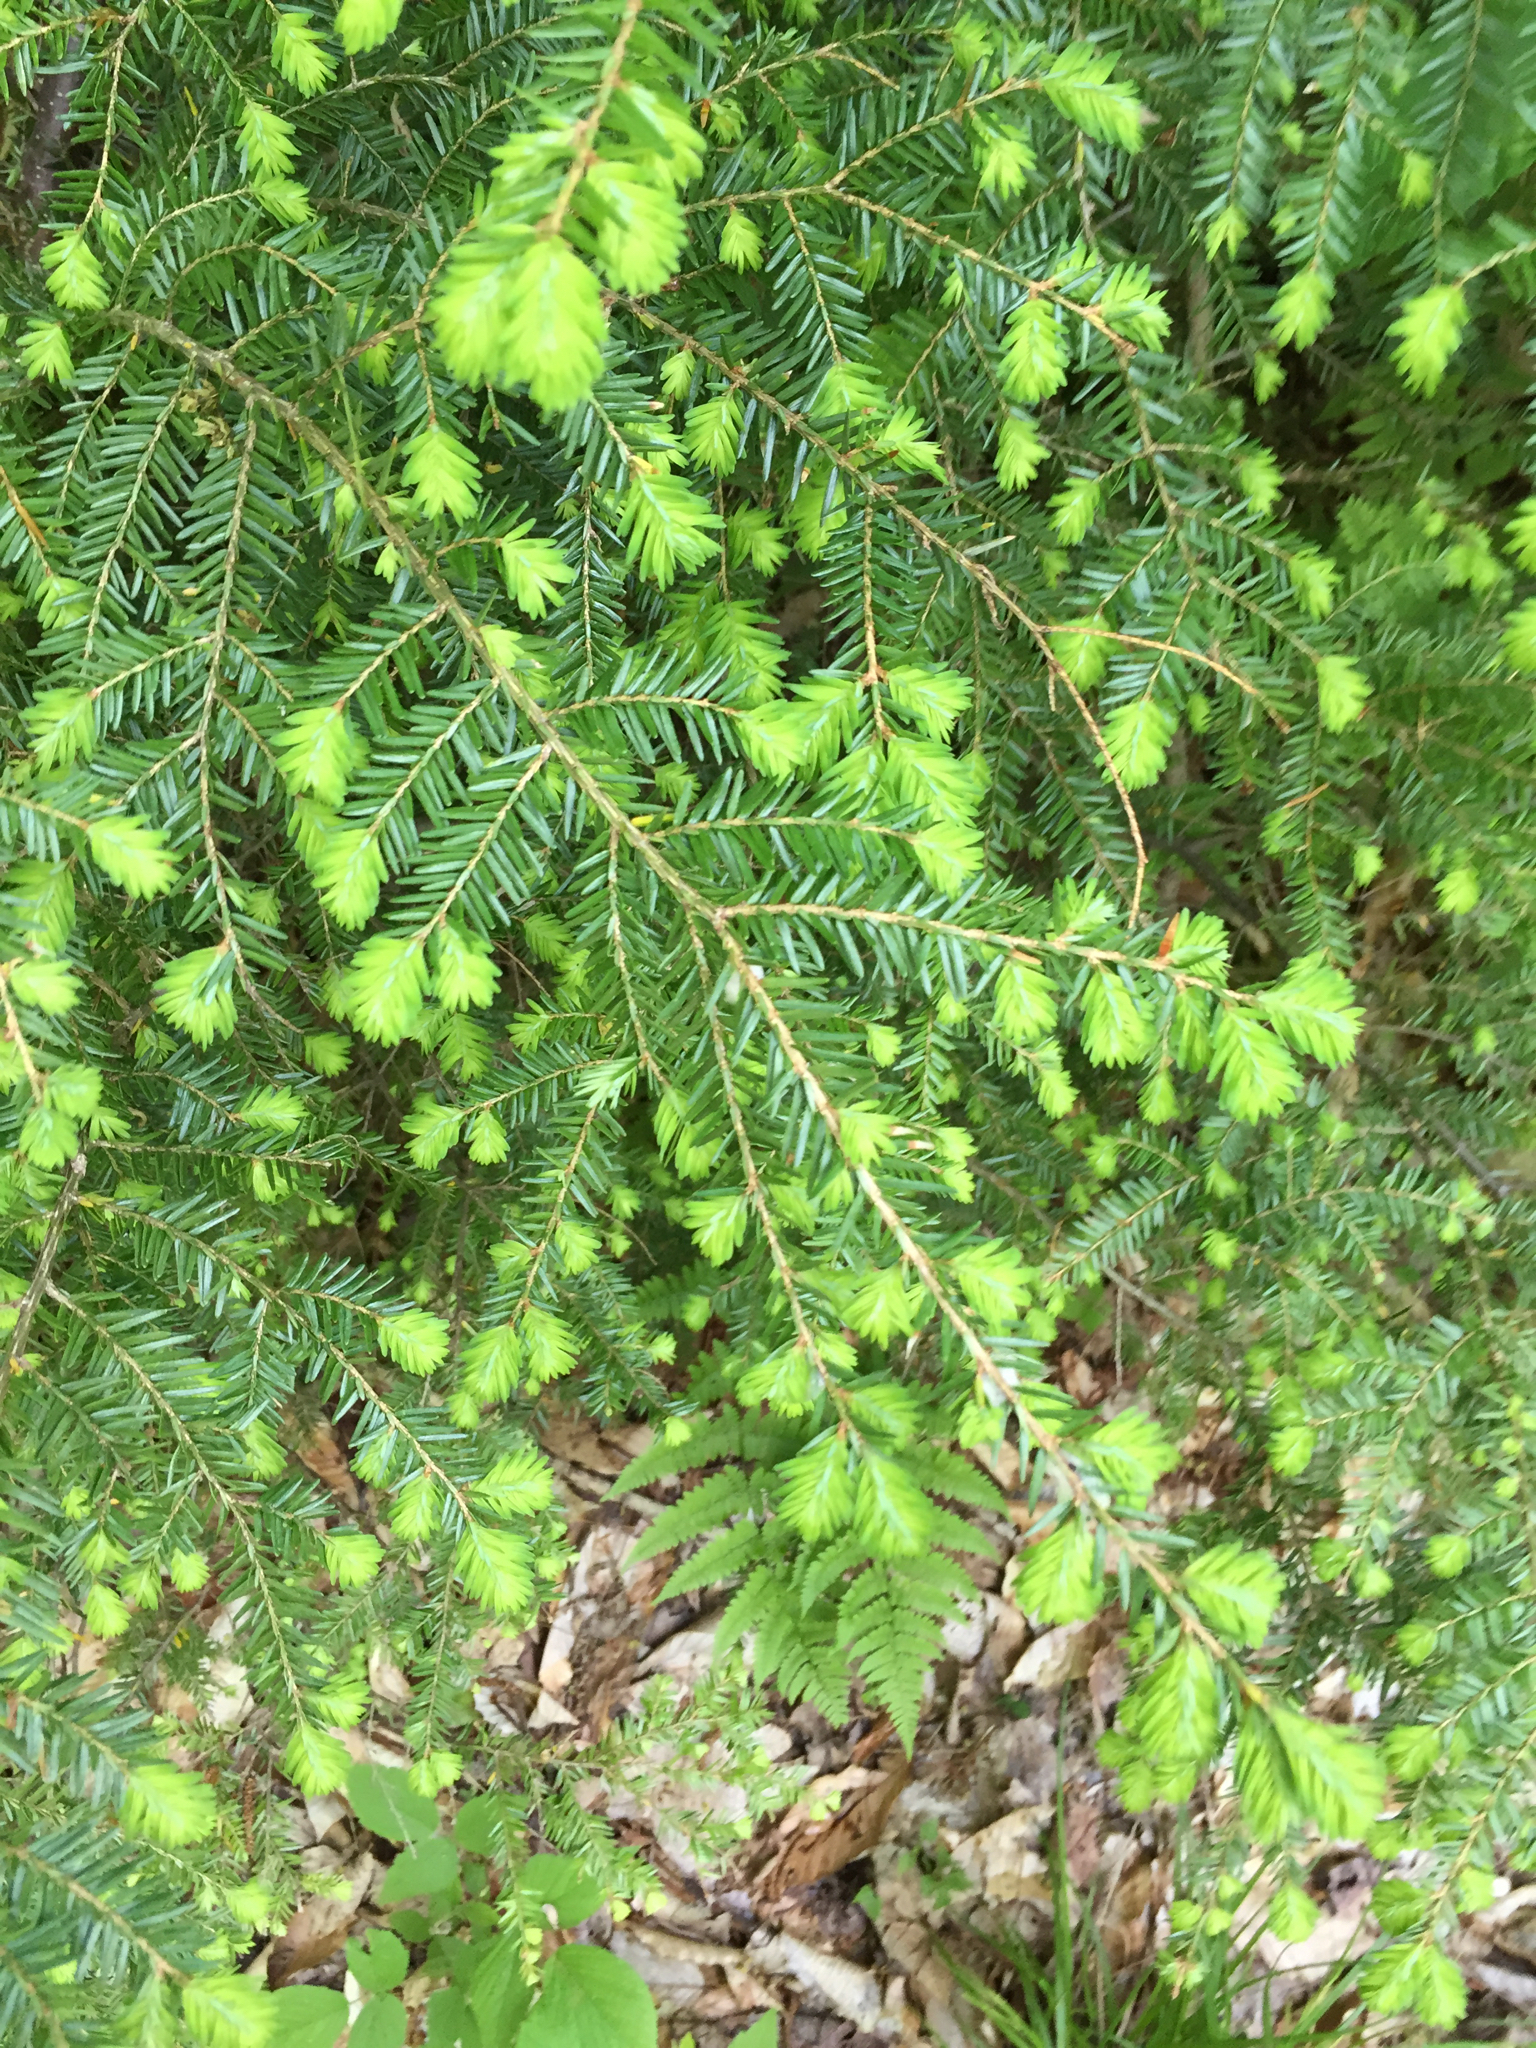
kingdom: Plantae
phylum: Tracheophyta
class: Pinopsida
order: Pinales
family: Pinaceae
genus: Tsuga
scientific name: Tsuga canadensis
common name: Eastern hemlock
